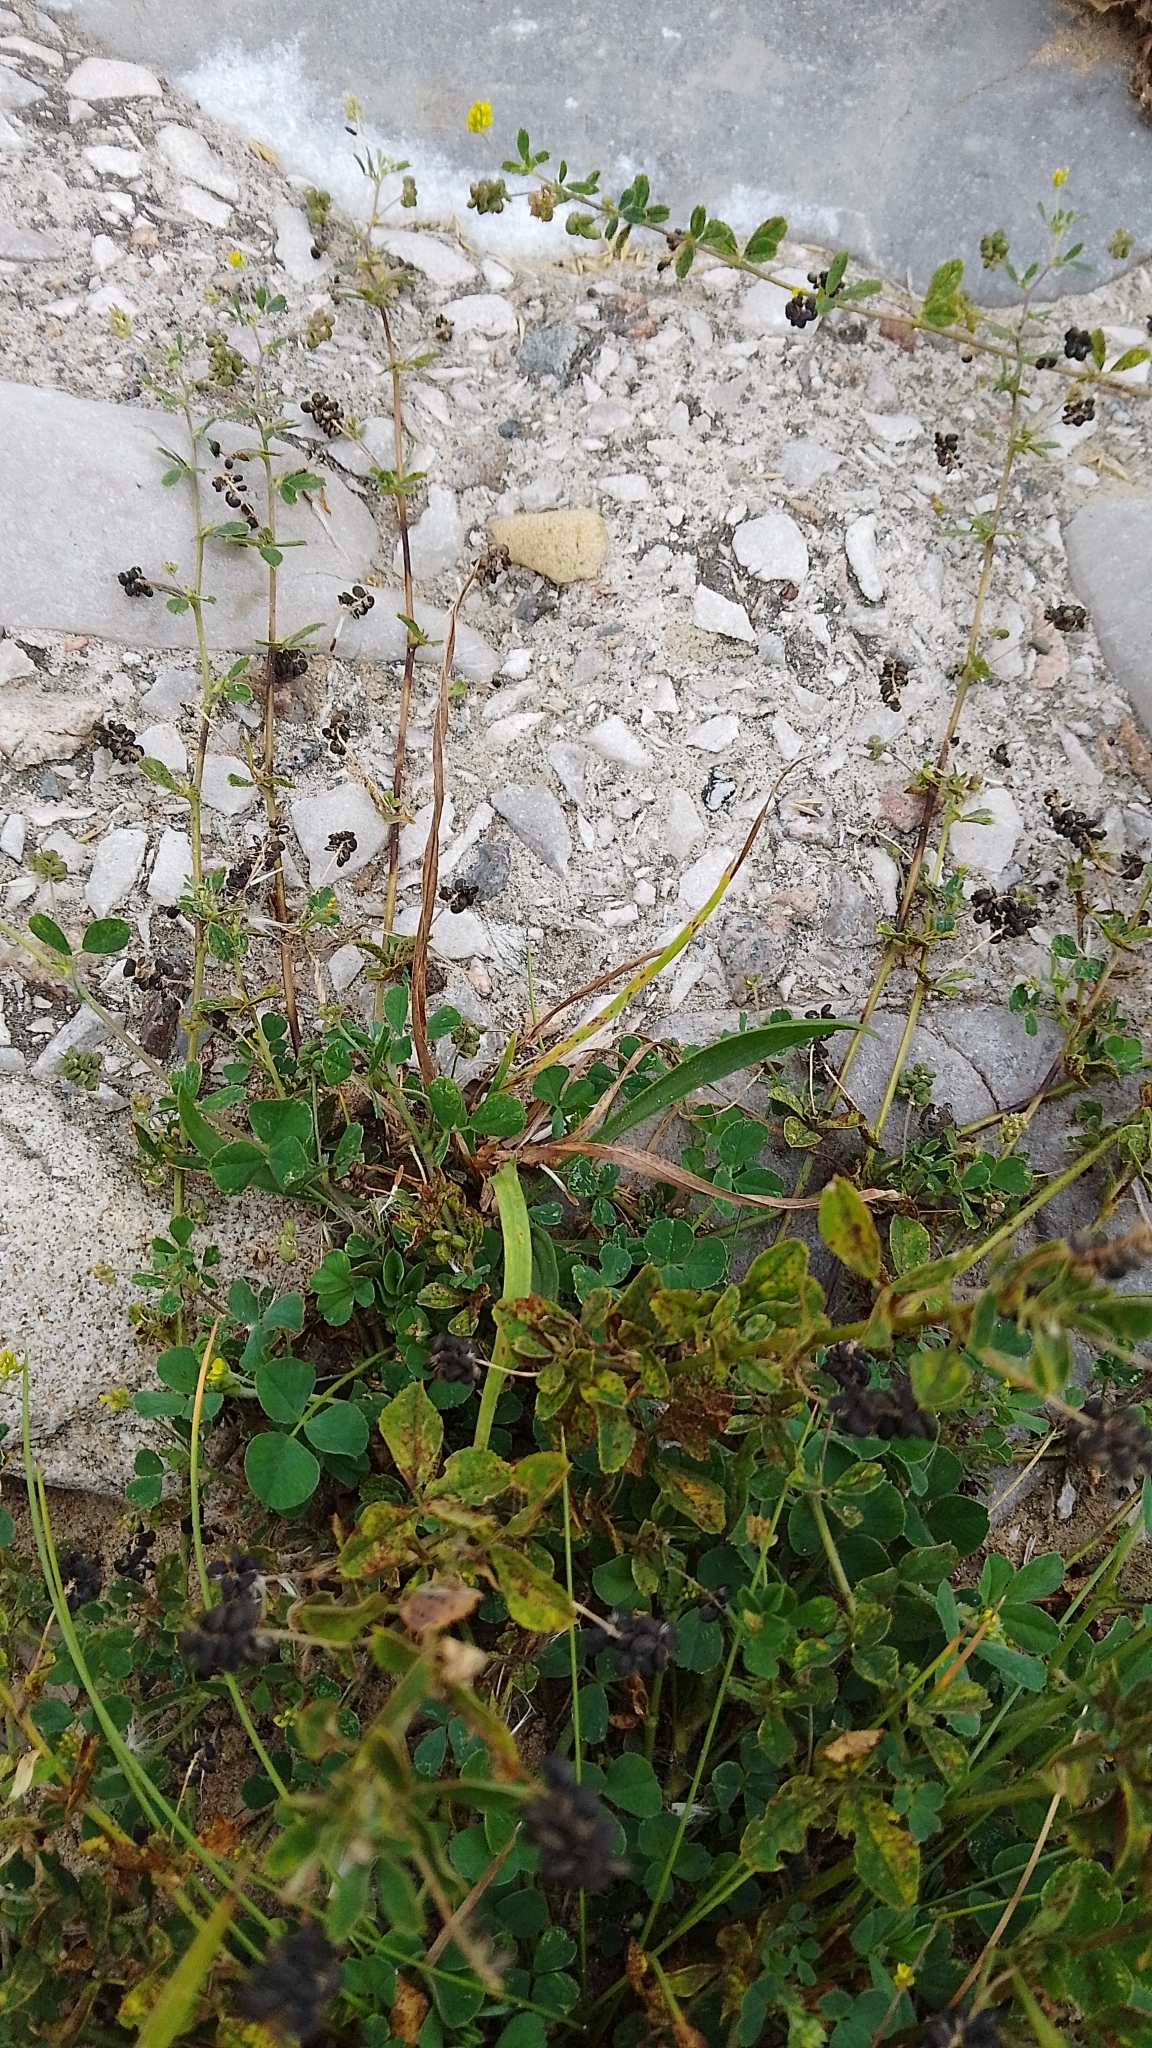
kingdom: Plantae
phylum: Tracheophyta
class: Magnoliopsida
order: Fabales
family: Fabaceae
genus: Medicago
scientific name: Medicago lupulina
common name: Black medick
